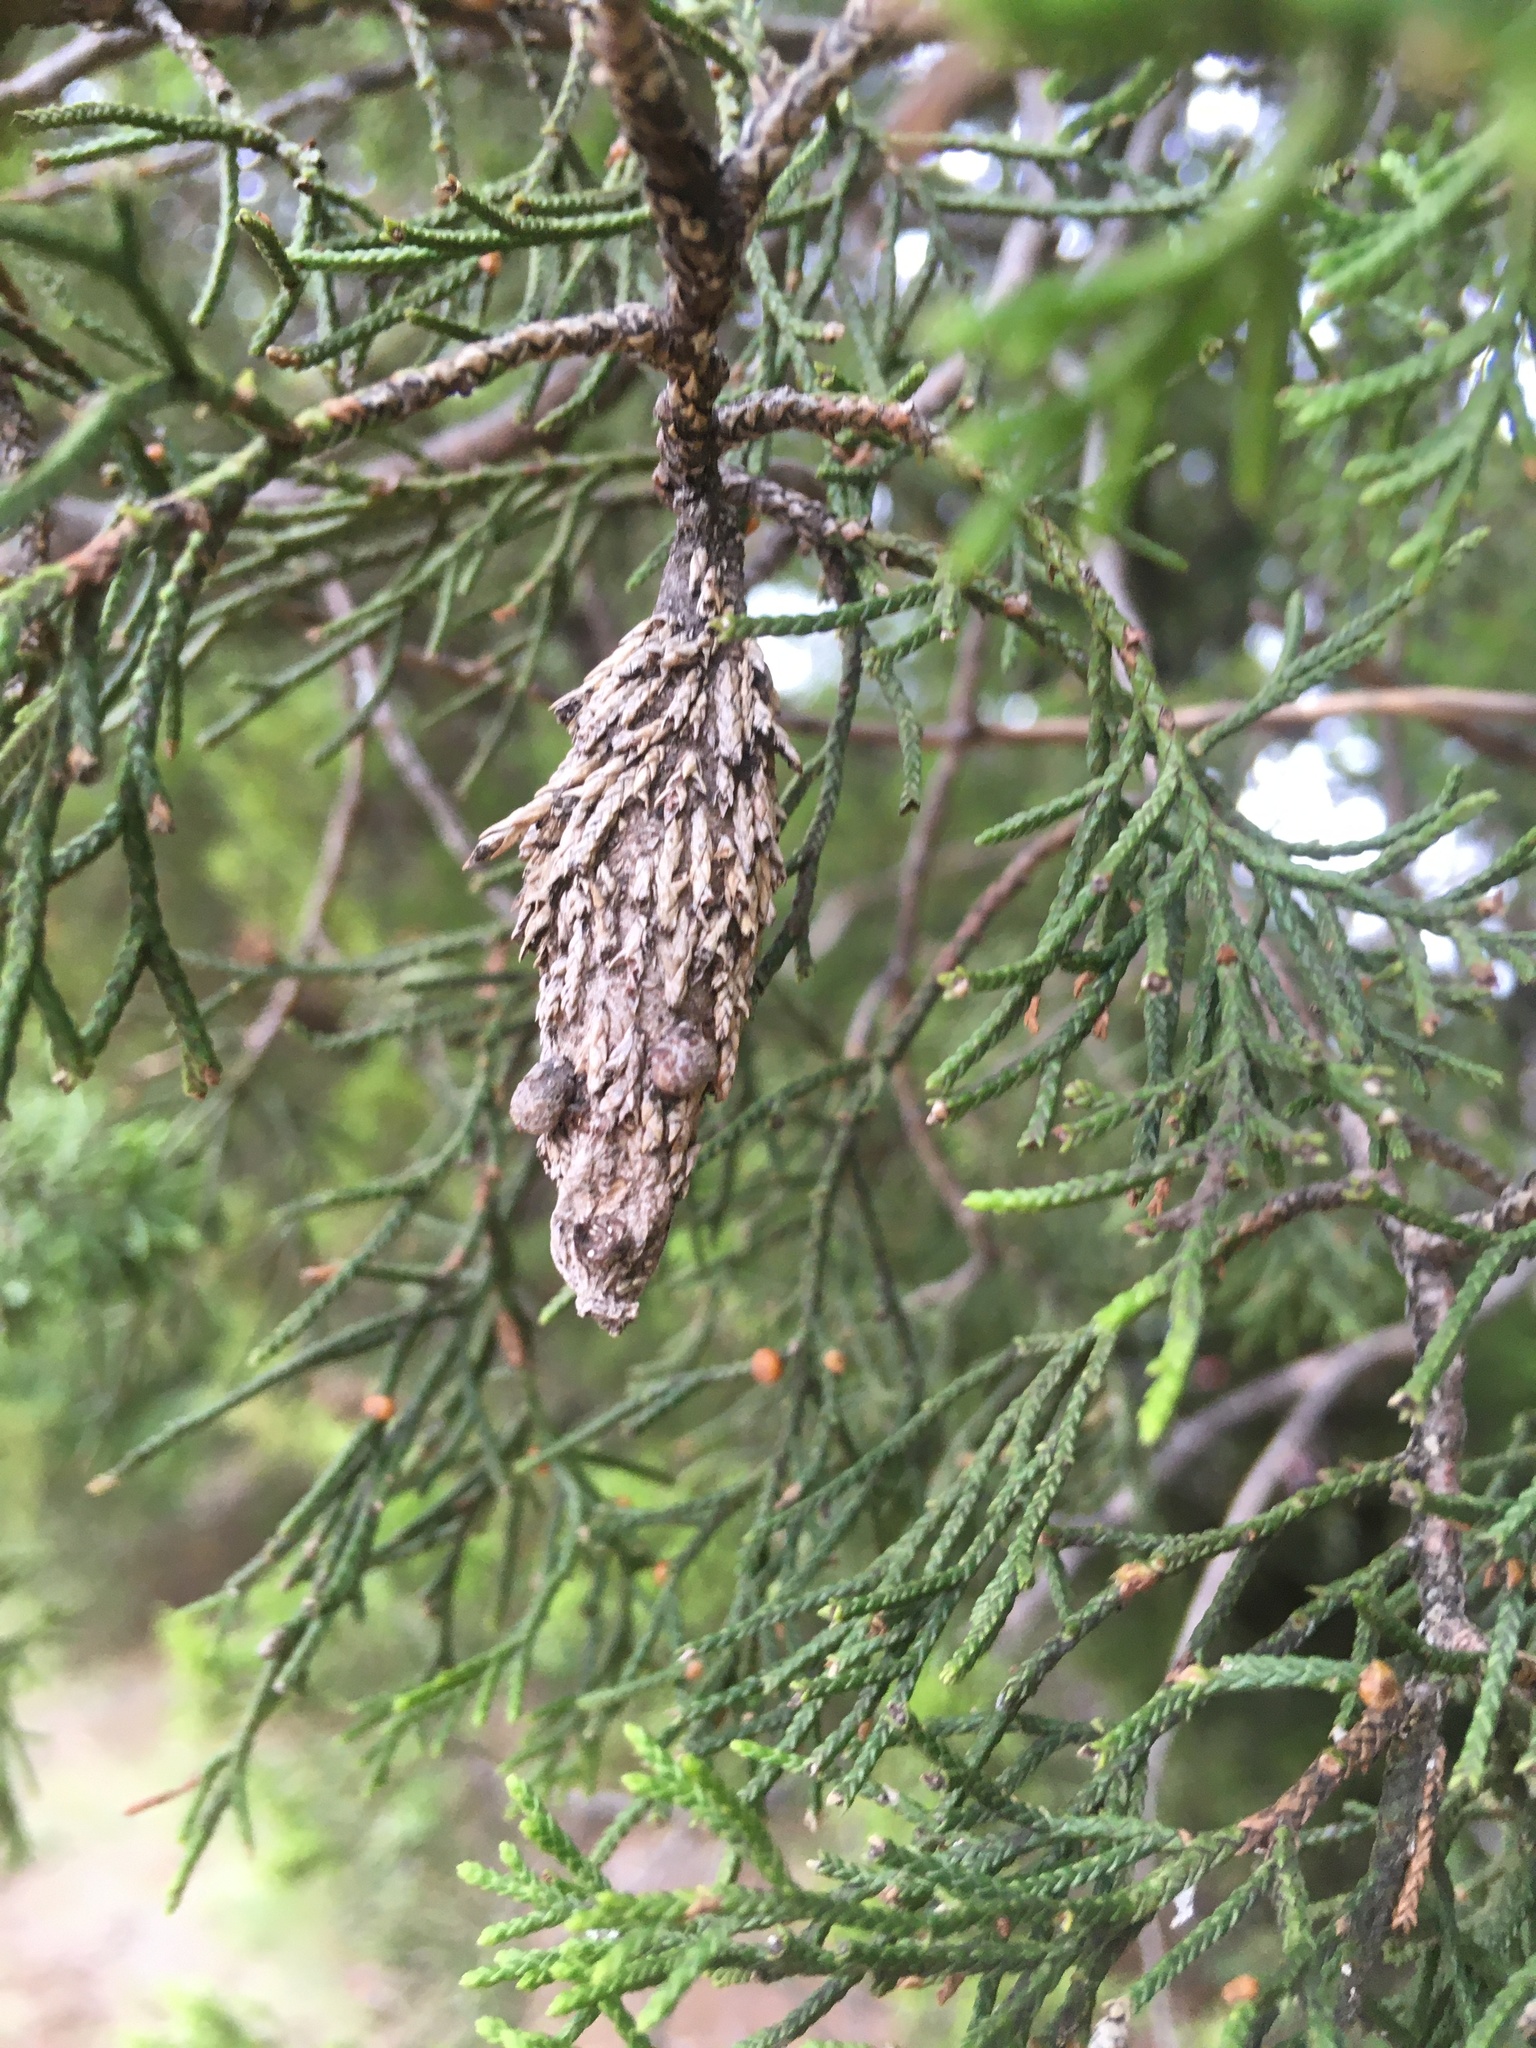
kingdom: Animalia
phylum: Arthropoda
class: Insecta
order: Lepidoptera
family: Psychidae
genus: Thyridopteryx
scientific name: Thyridopteryx ephemeraeformis
